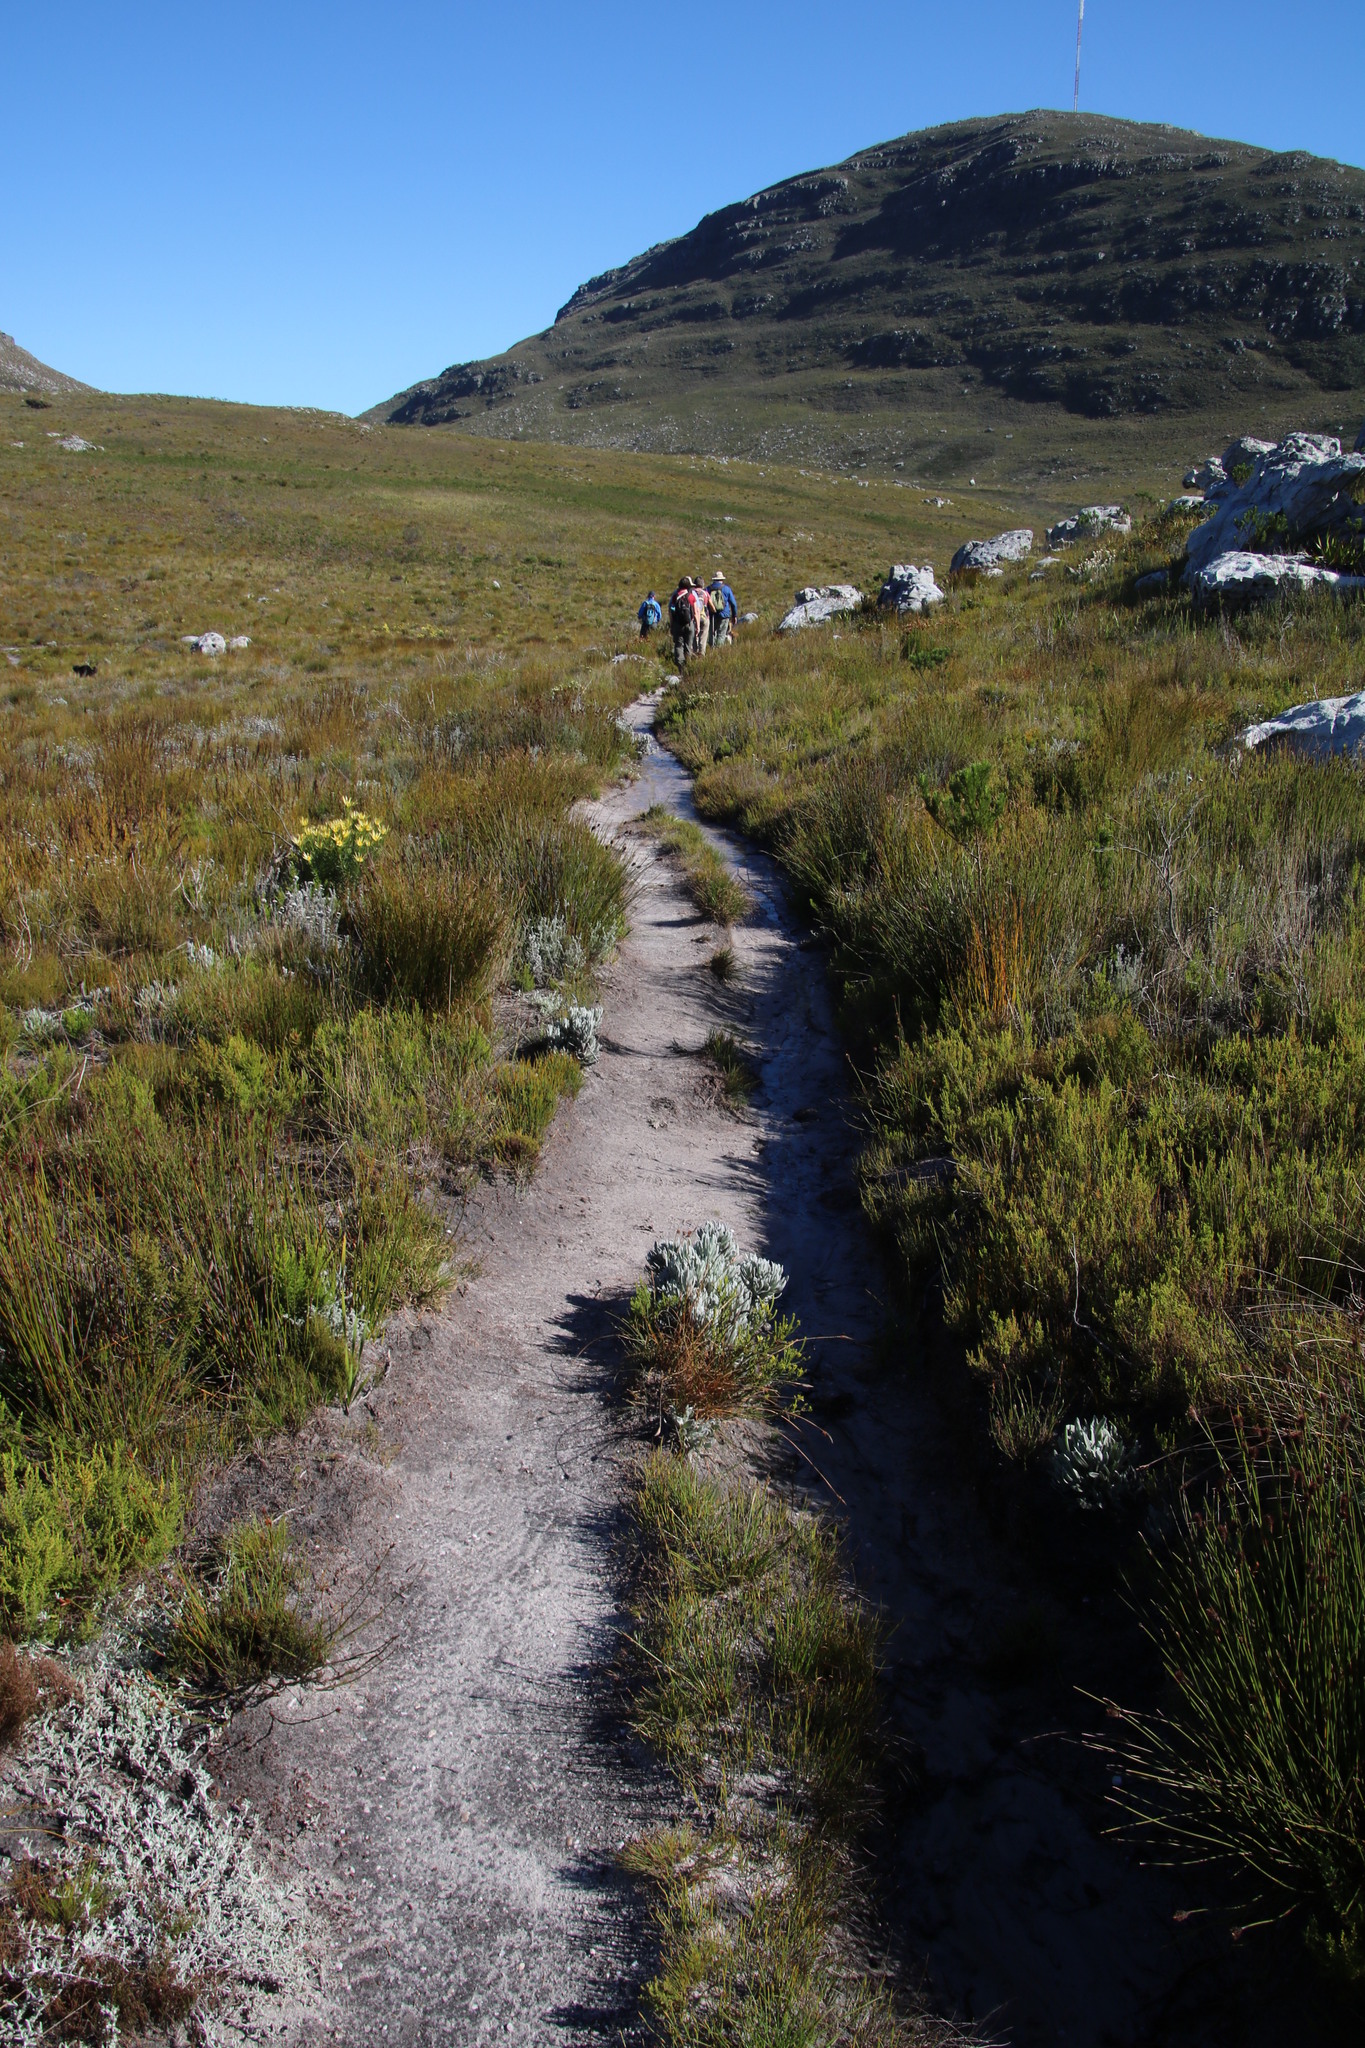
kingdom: Plantae
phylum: Tracheophyta
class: Magnoliopsida
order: Proteales
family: Proteaceae
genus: Leucadendron
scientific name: Leucadendron xanthoconus
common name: Sickle-leaf conebush
